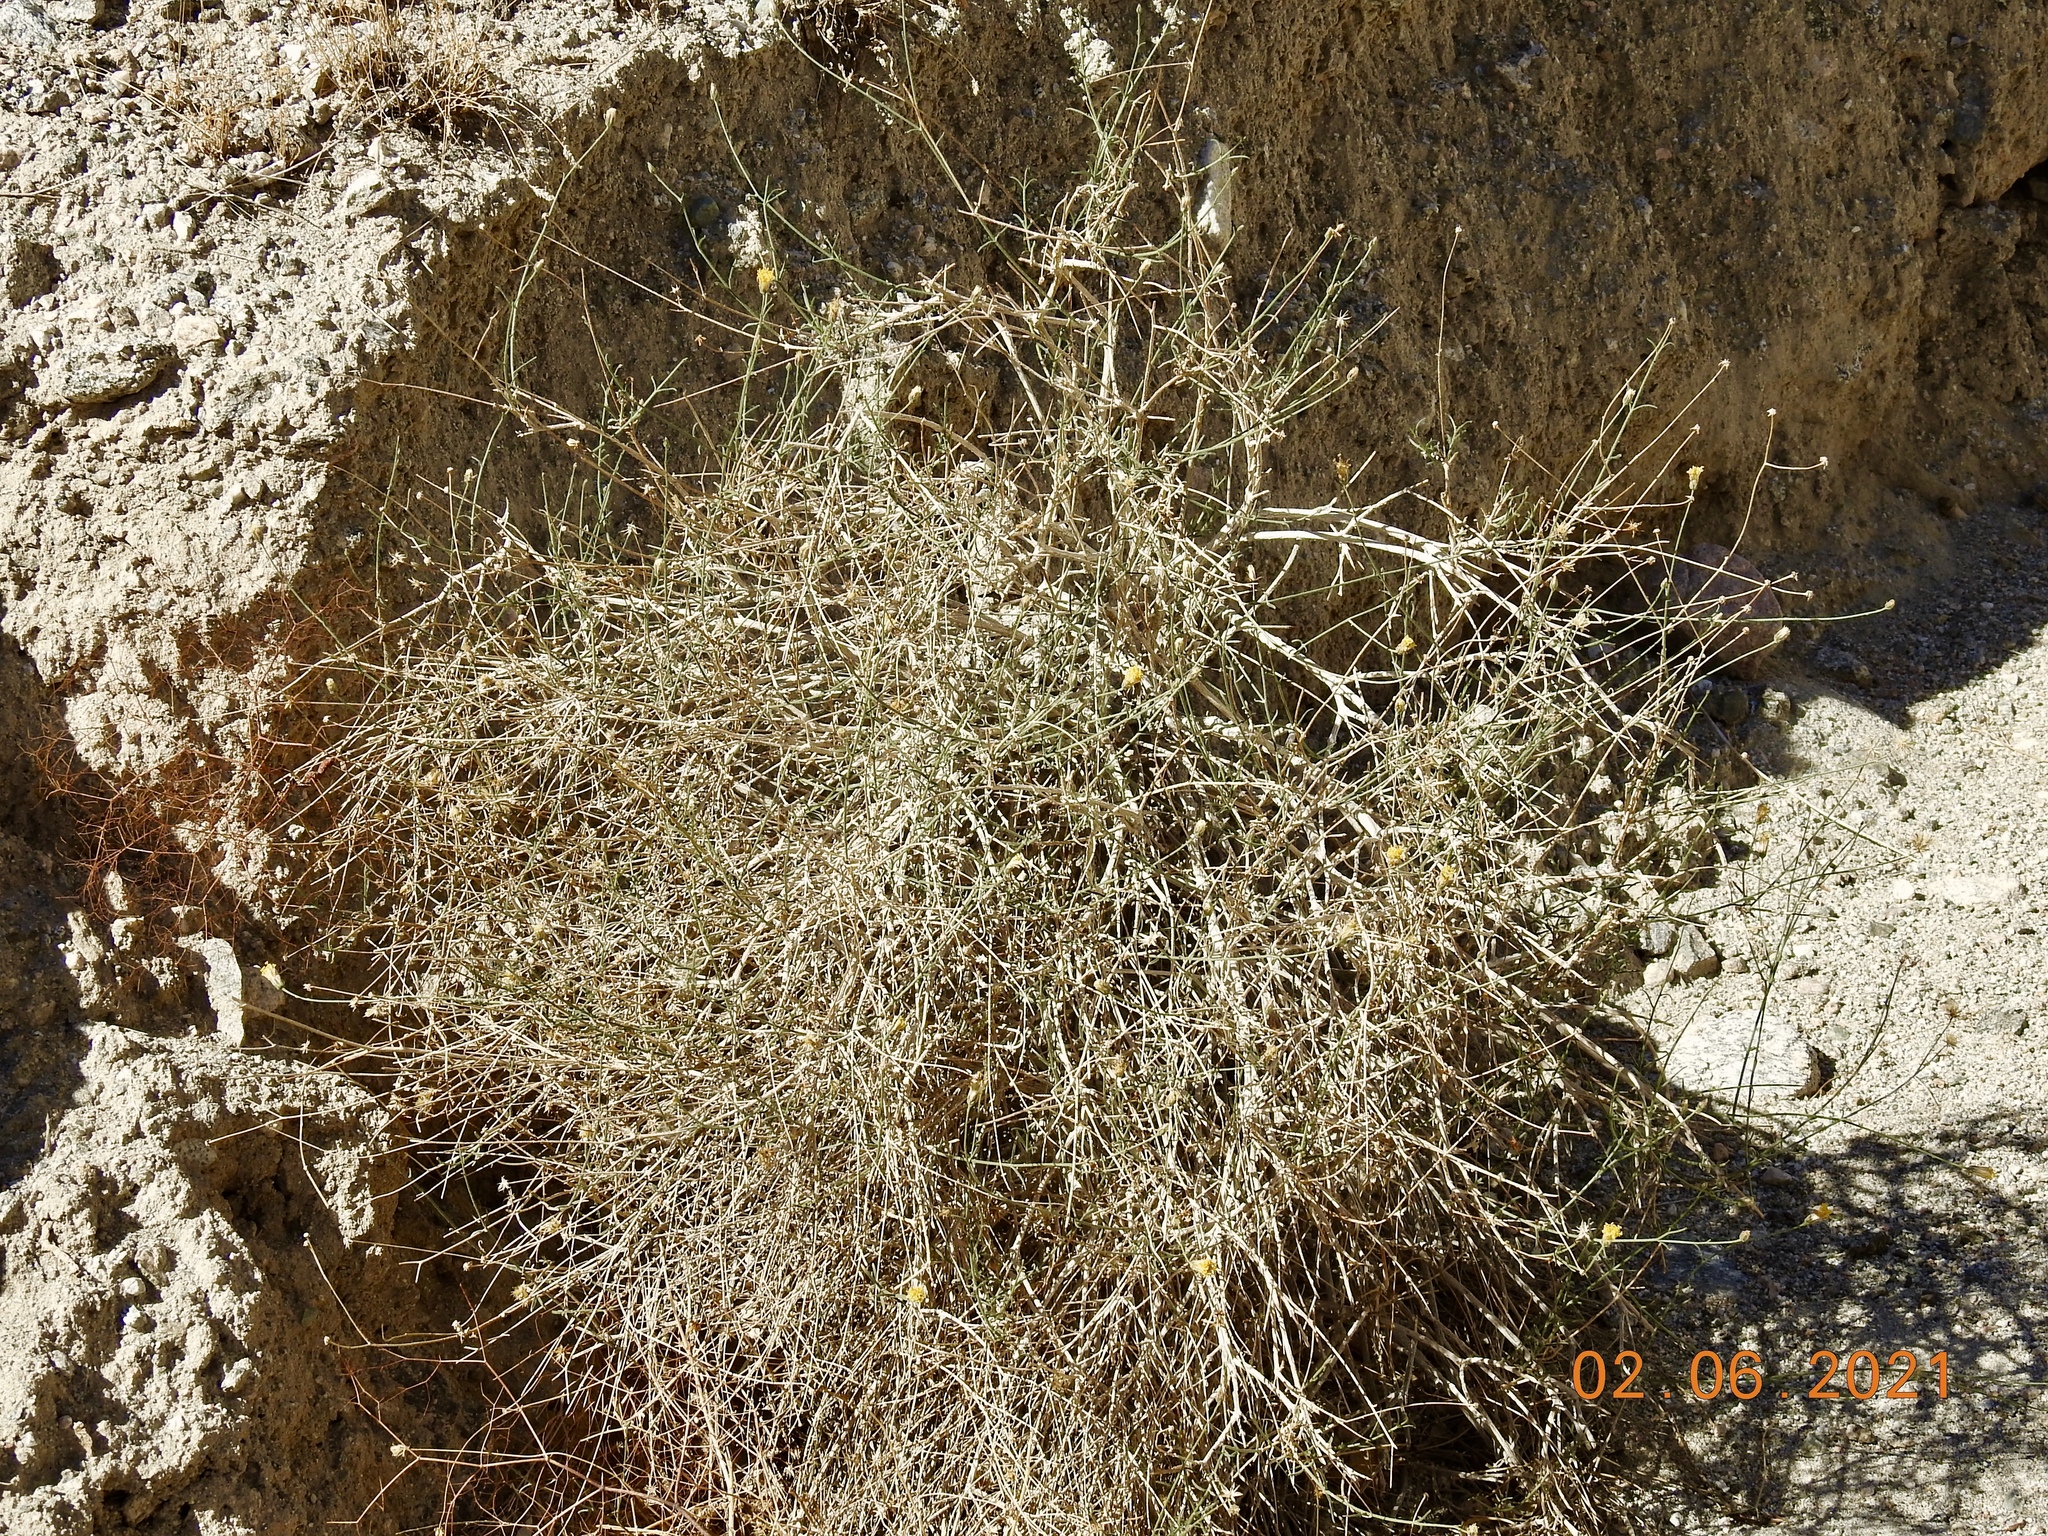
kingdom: Plantae
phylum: Tracheophyta
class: Magnoliopsida
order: Asterales
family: Asteraceae
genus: Bebbia
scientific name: Bebbia juncea
